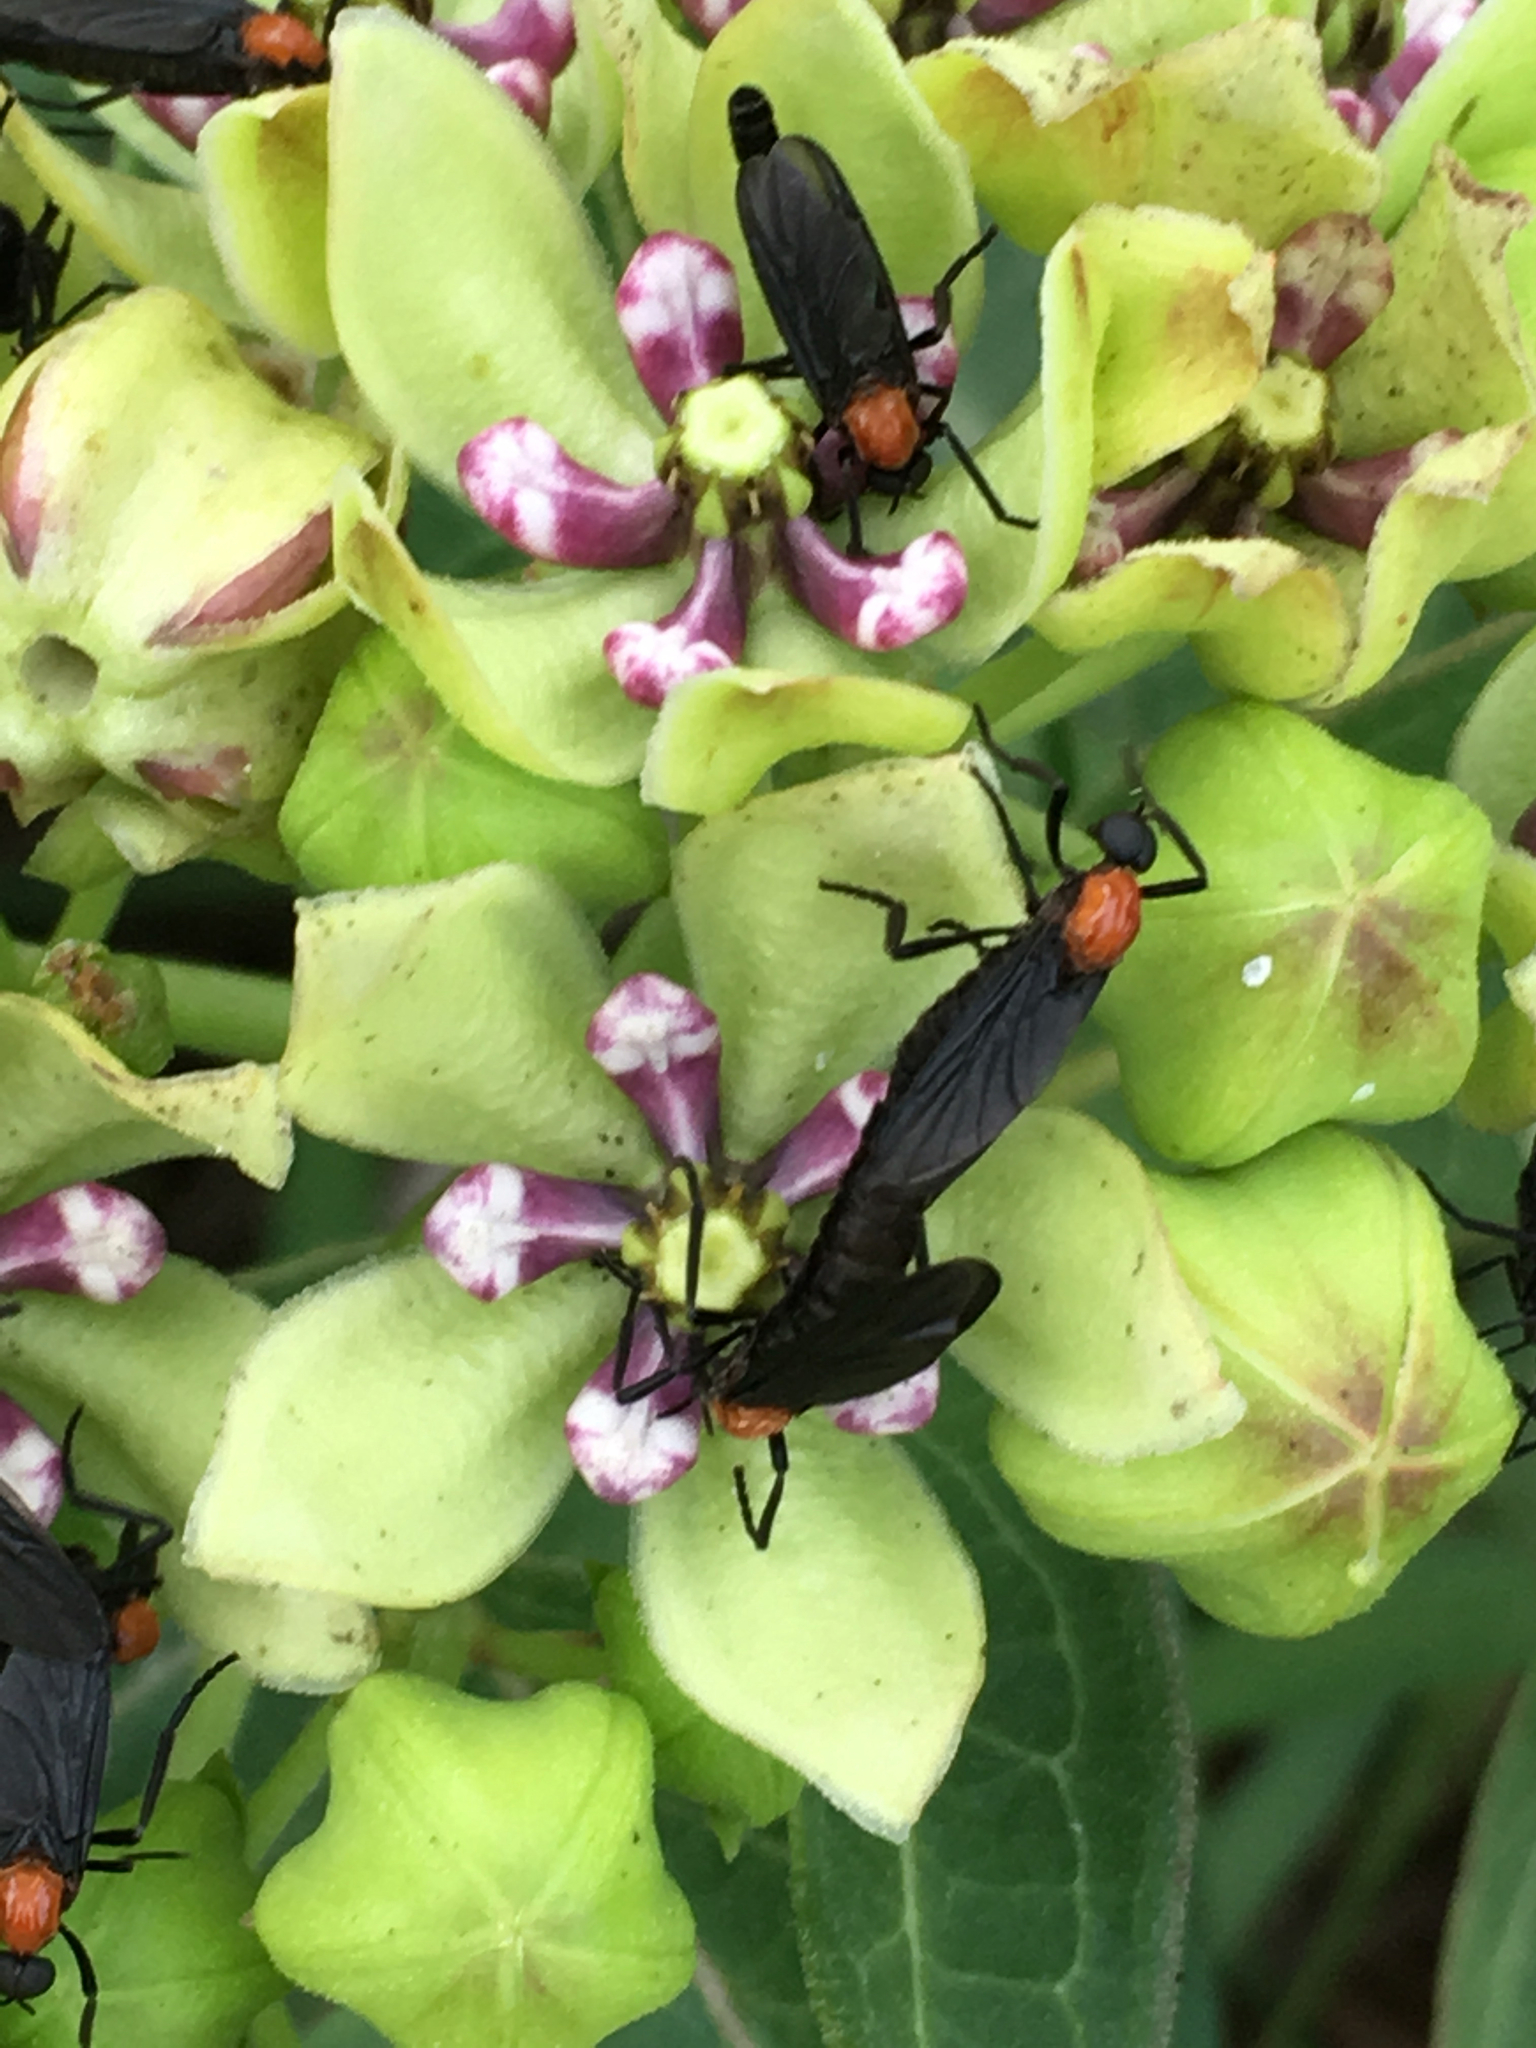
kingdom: Plantae
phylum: Tracheophyta
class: Magnoliopsida
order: Gentianales
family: Apocynaceae
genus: Asclepias
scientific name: Asclepias viridis
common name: Antelope-horns
